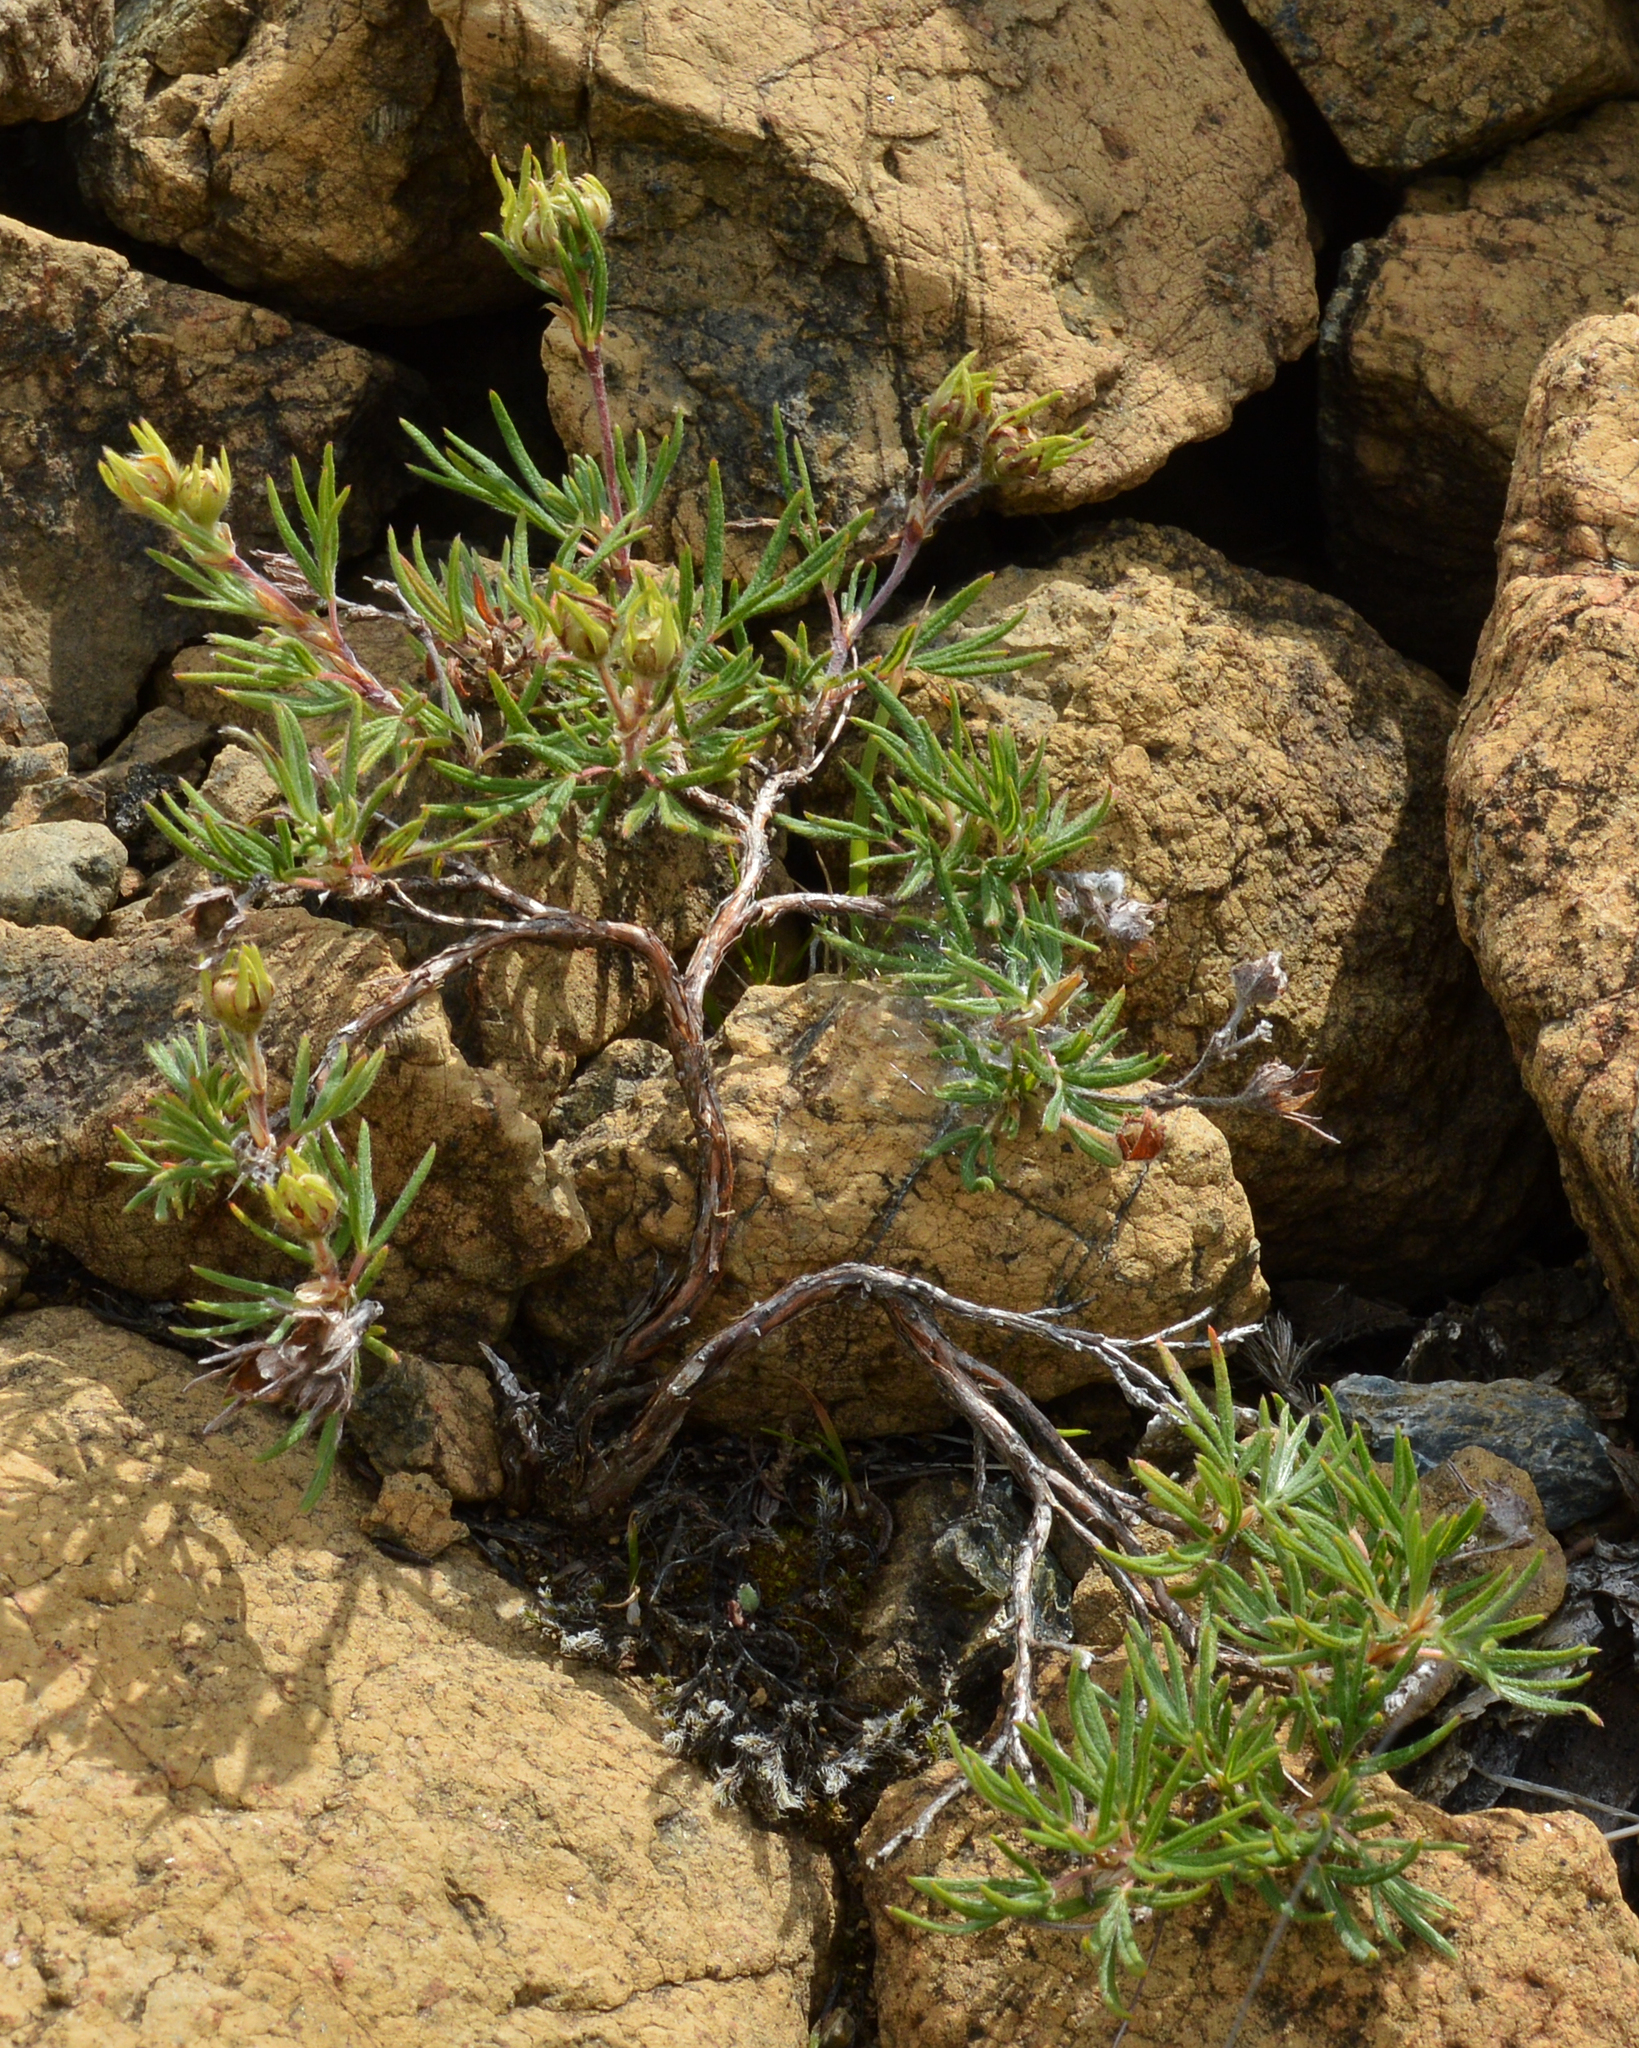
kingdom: Plantae
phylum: Tracheophyta
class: Magnoliopsida
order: Rosales
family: Rosaceae
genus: Dasiphora
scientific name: Dasiphora fruticosa
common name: Shrubby cinquefoil
